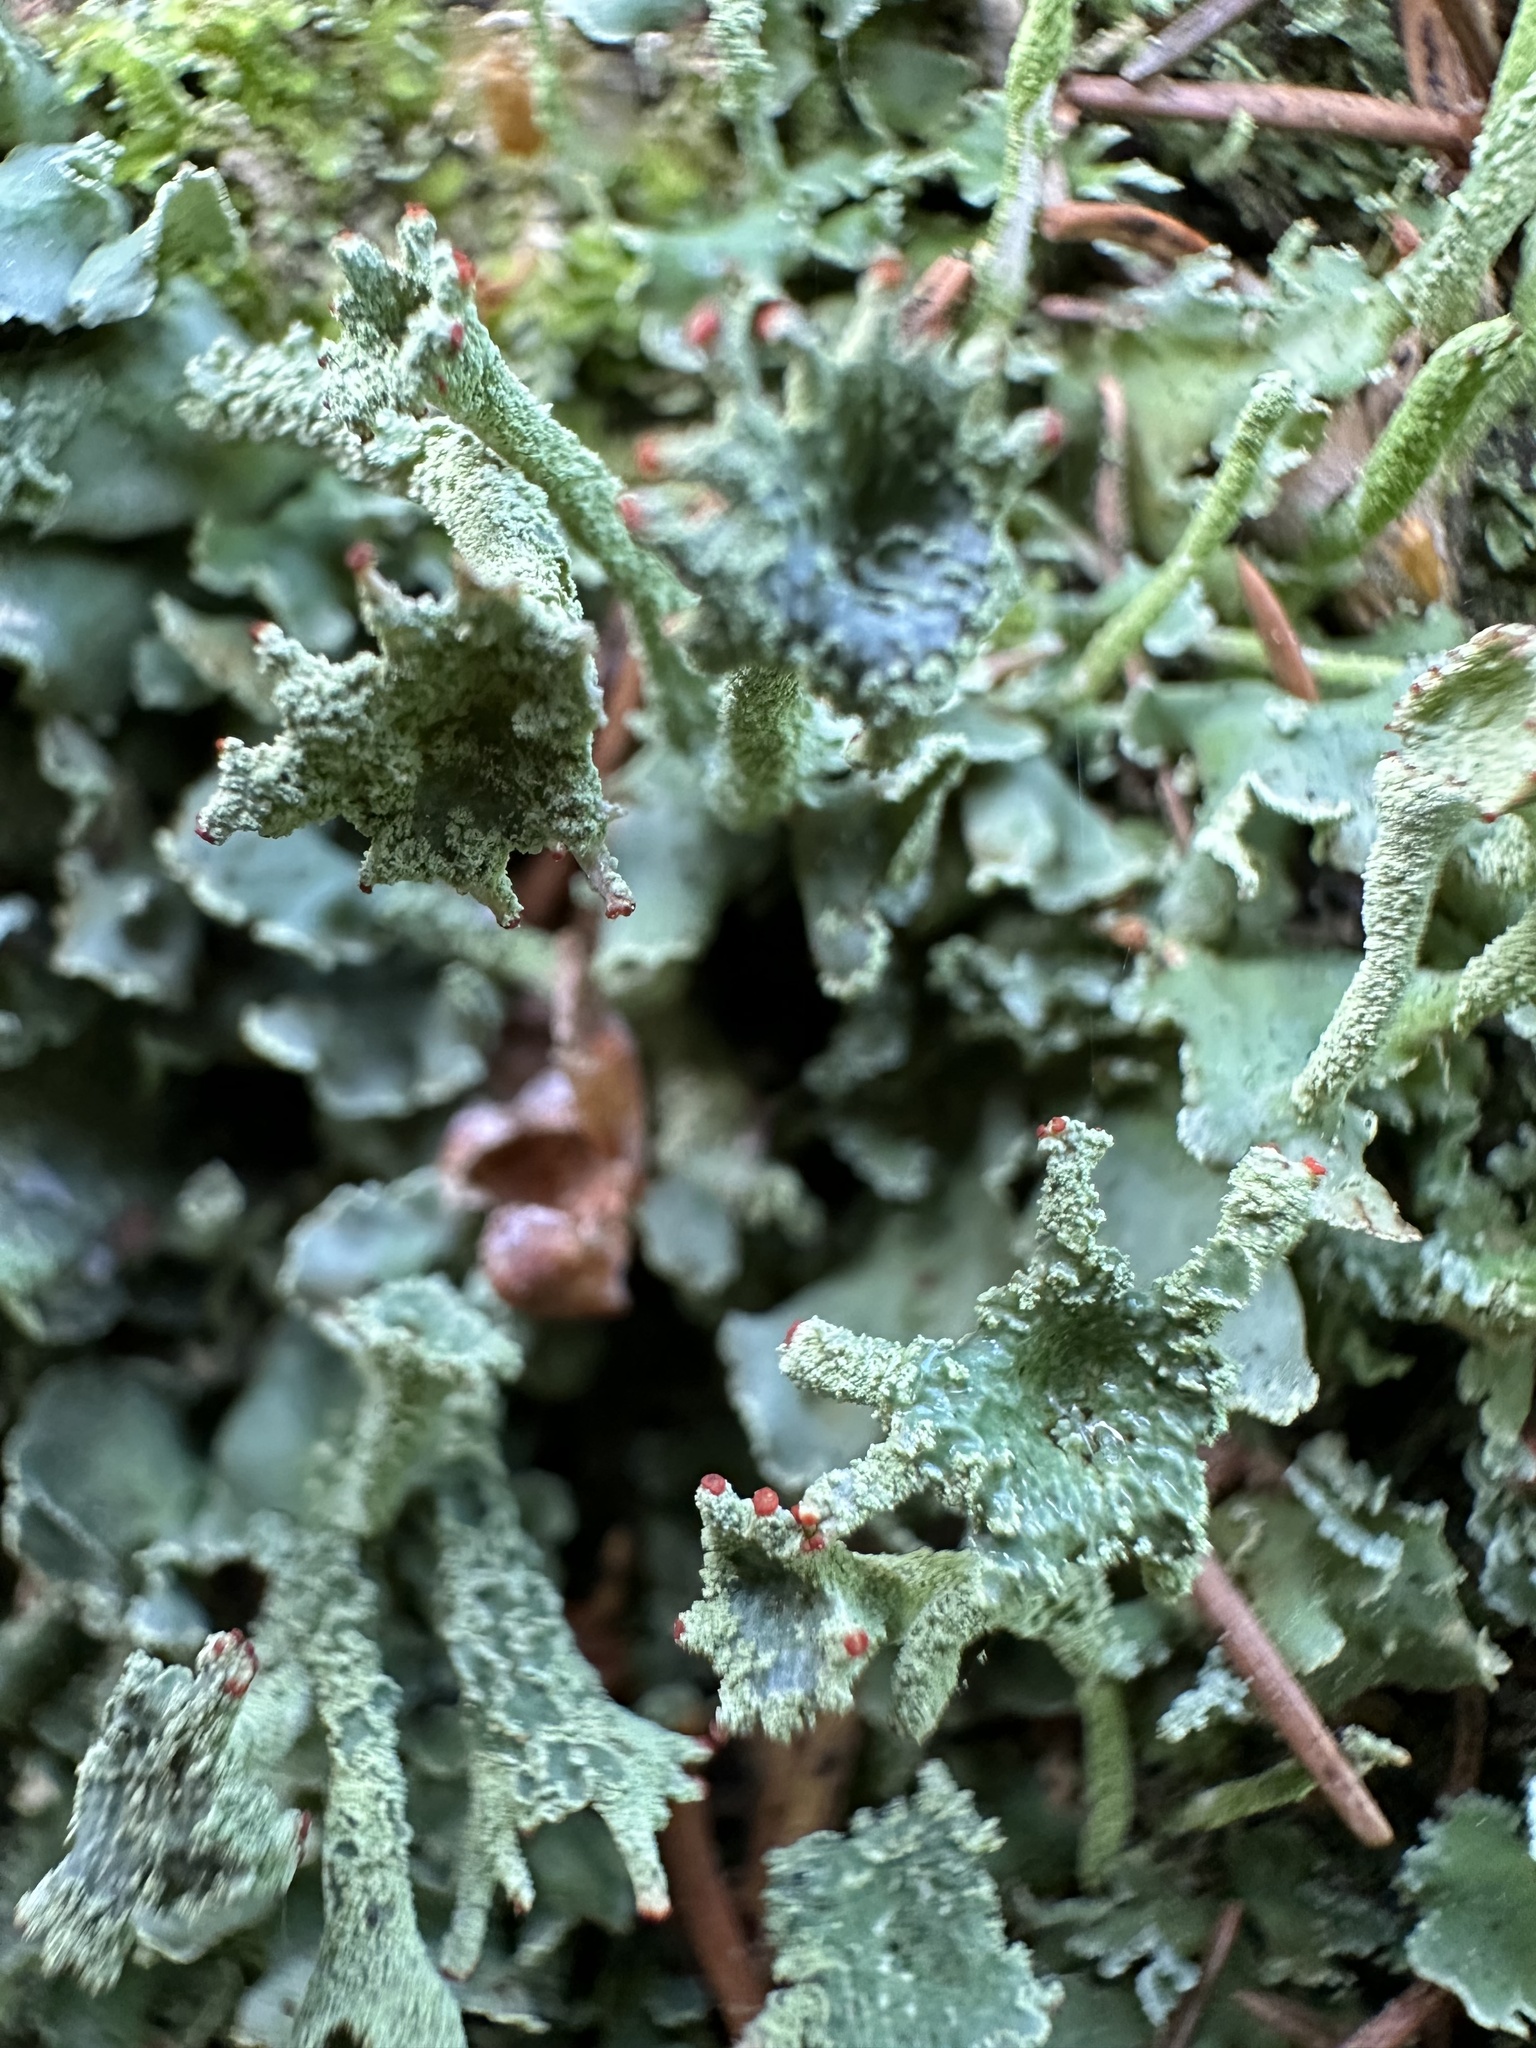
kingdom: Fungi
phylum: Ascomycota
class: Lecanoromycetes
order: Lecanorales
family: Cladoniaceae
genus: Cladonia
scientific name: Cladonia digitata
